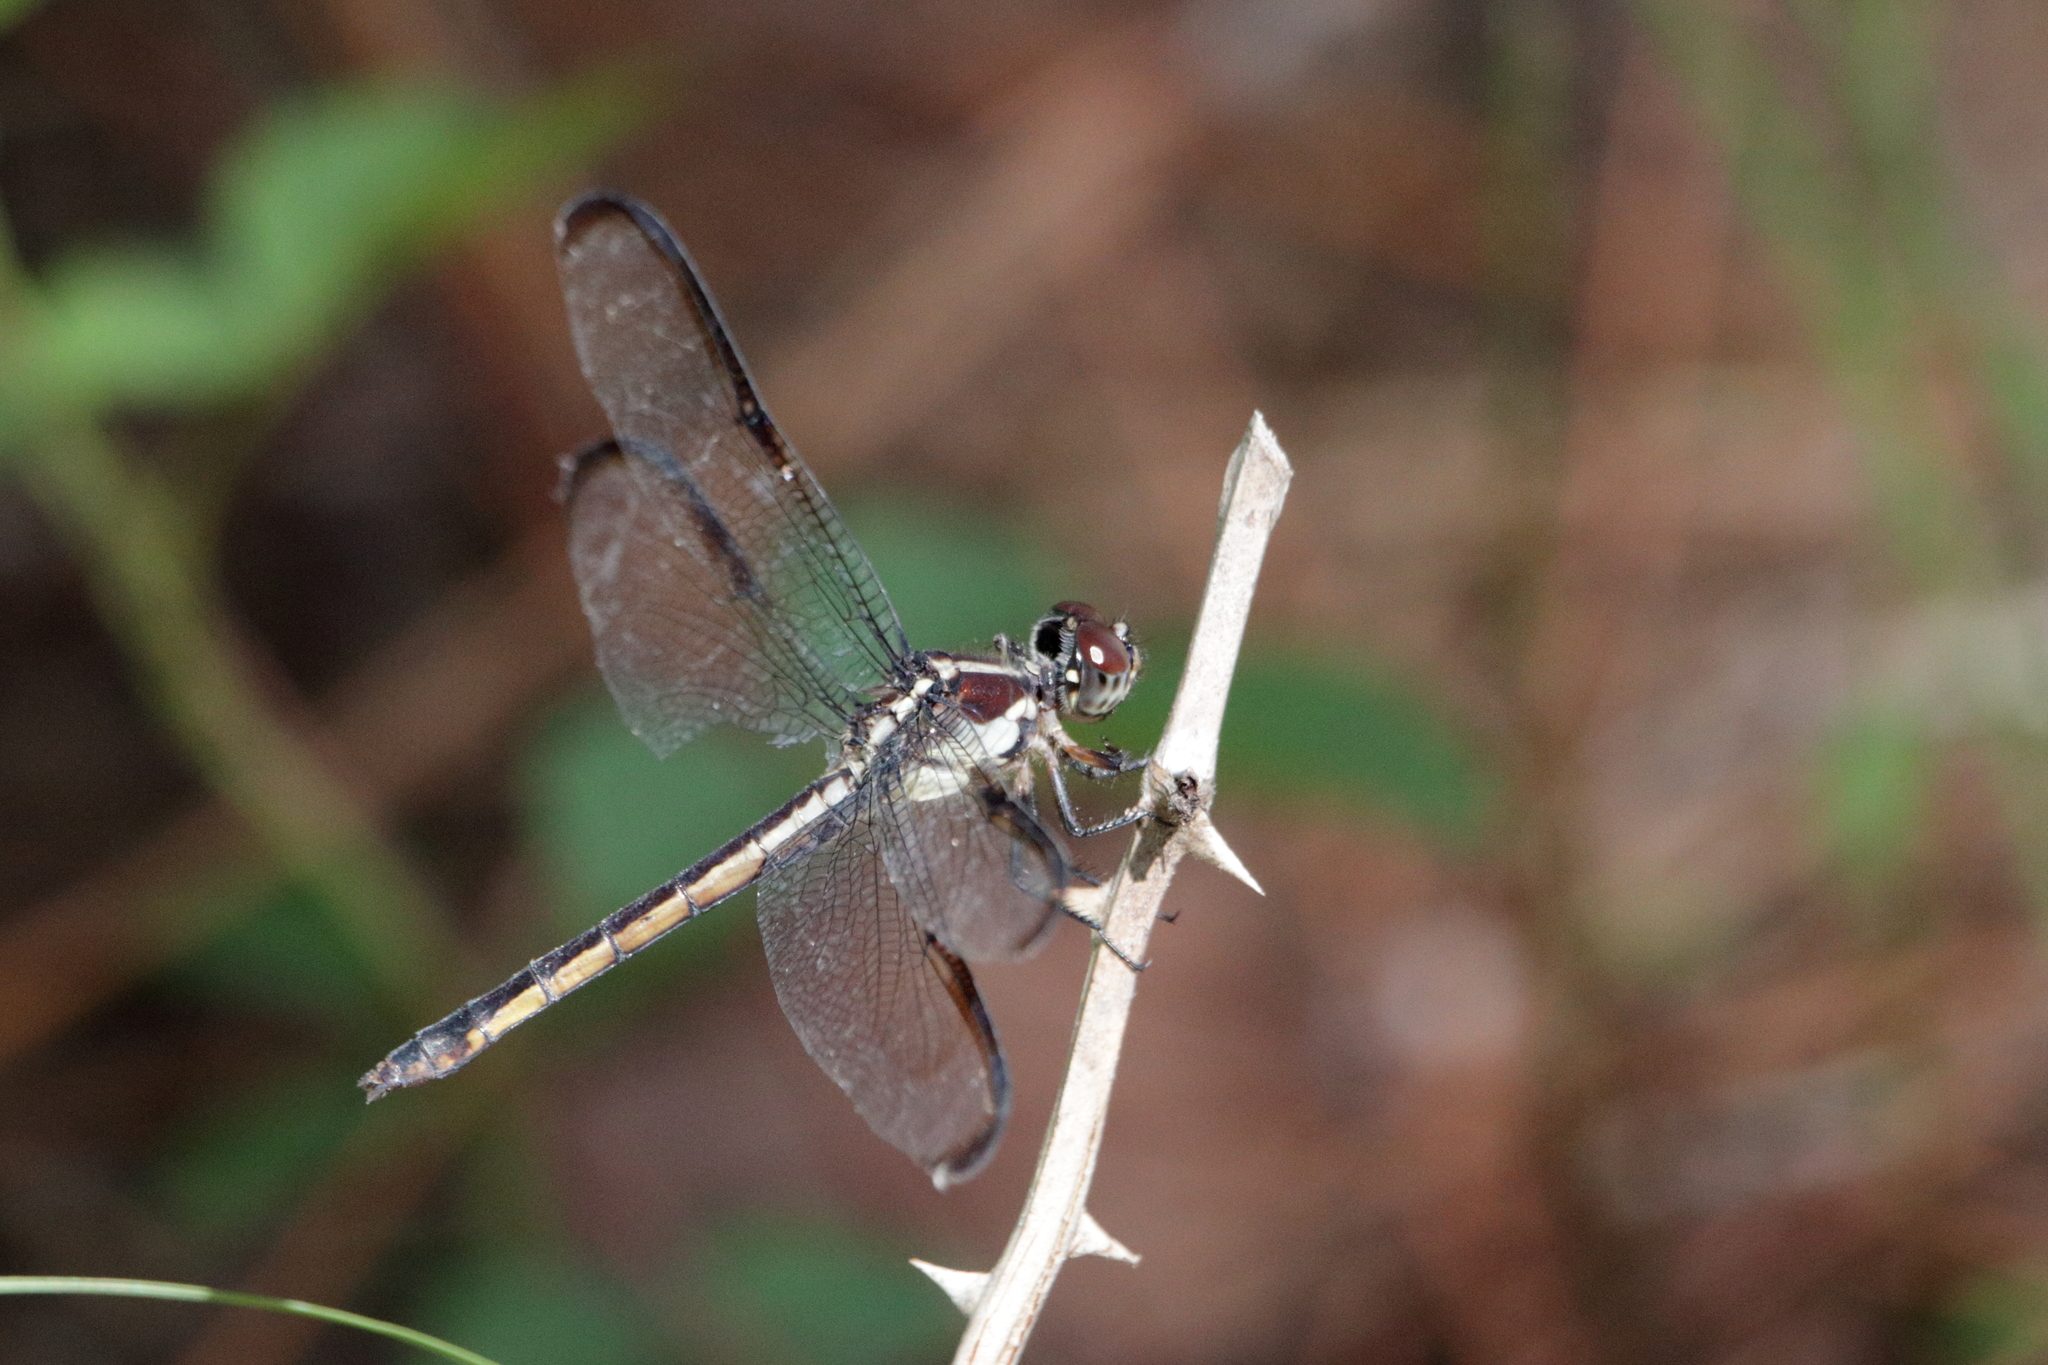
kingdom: Animalia
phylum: Arthropoda
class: Insecta
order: Odonata
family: Libellulidae
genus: Libellula
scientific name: Libellula incesta
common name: Slaty skimmer
